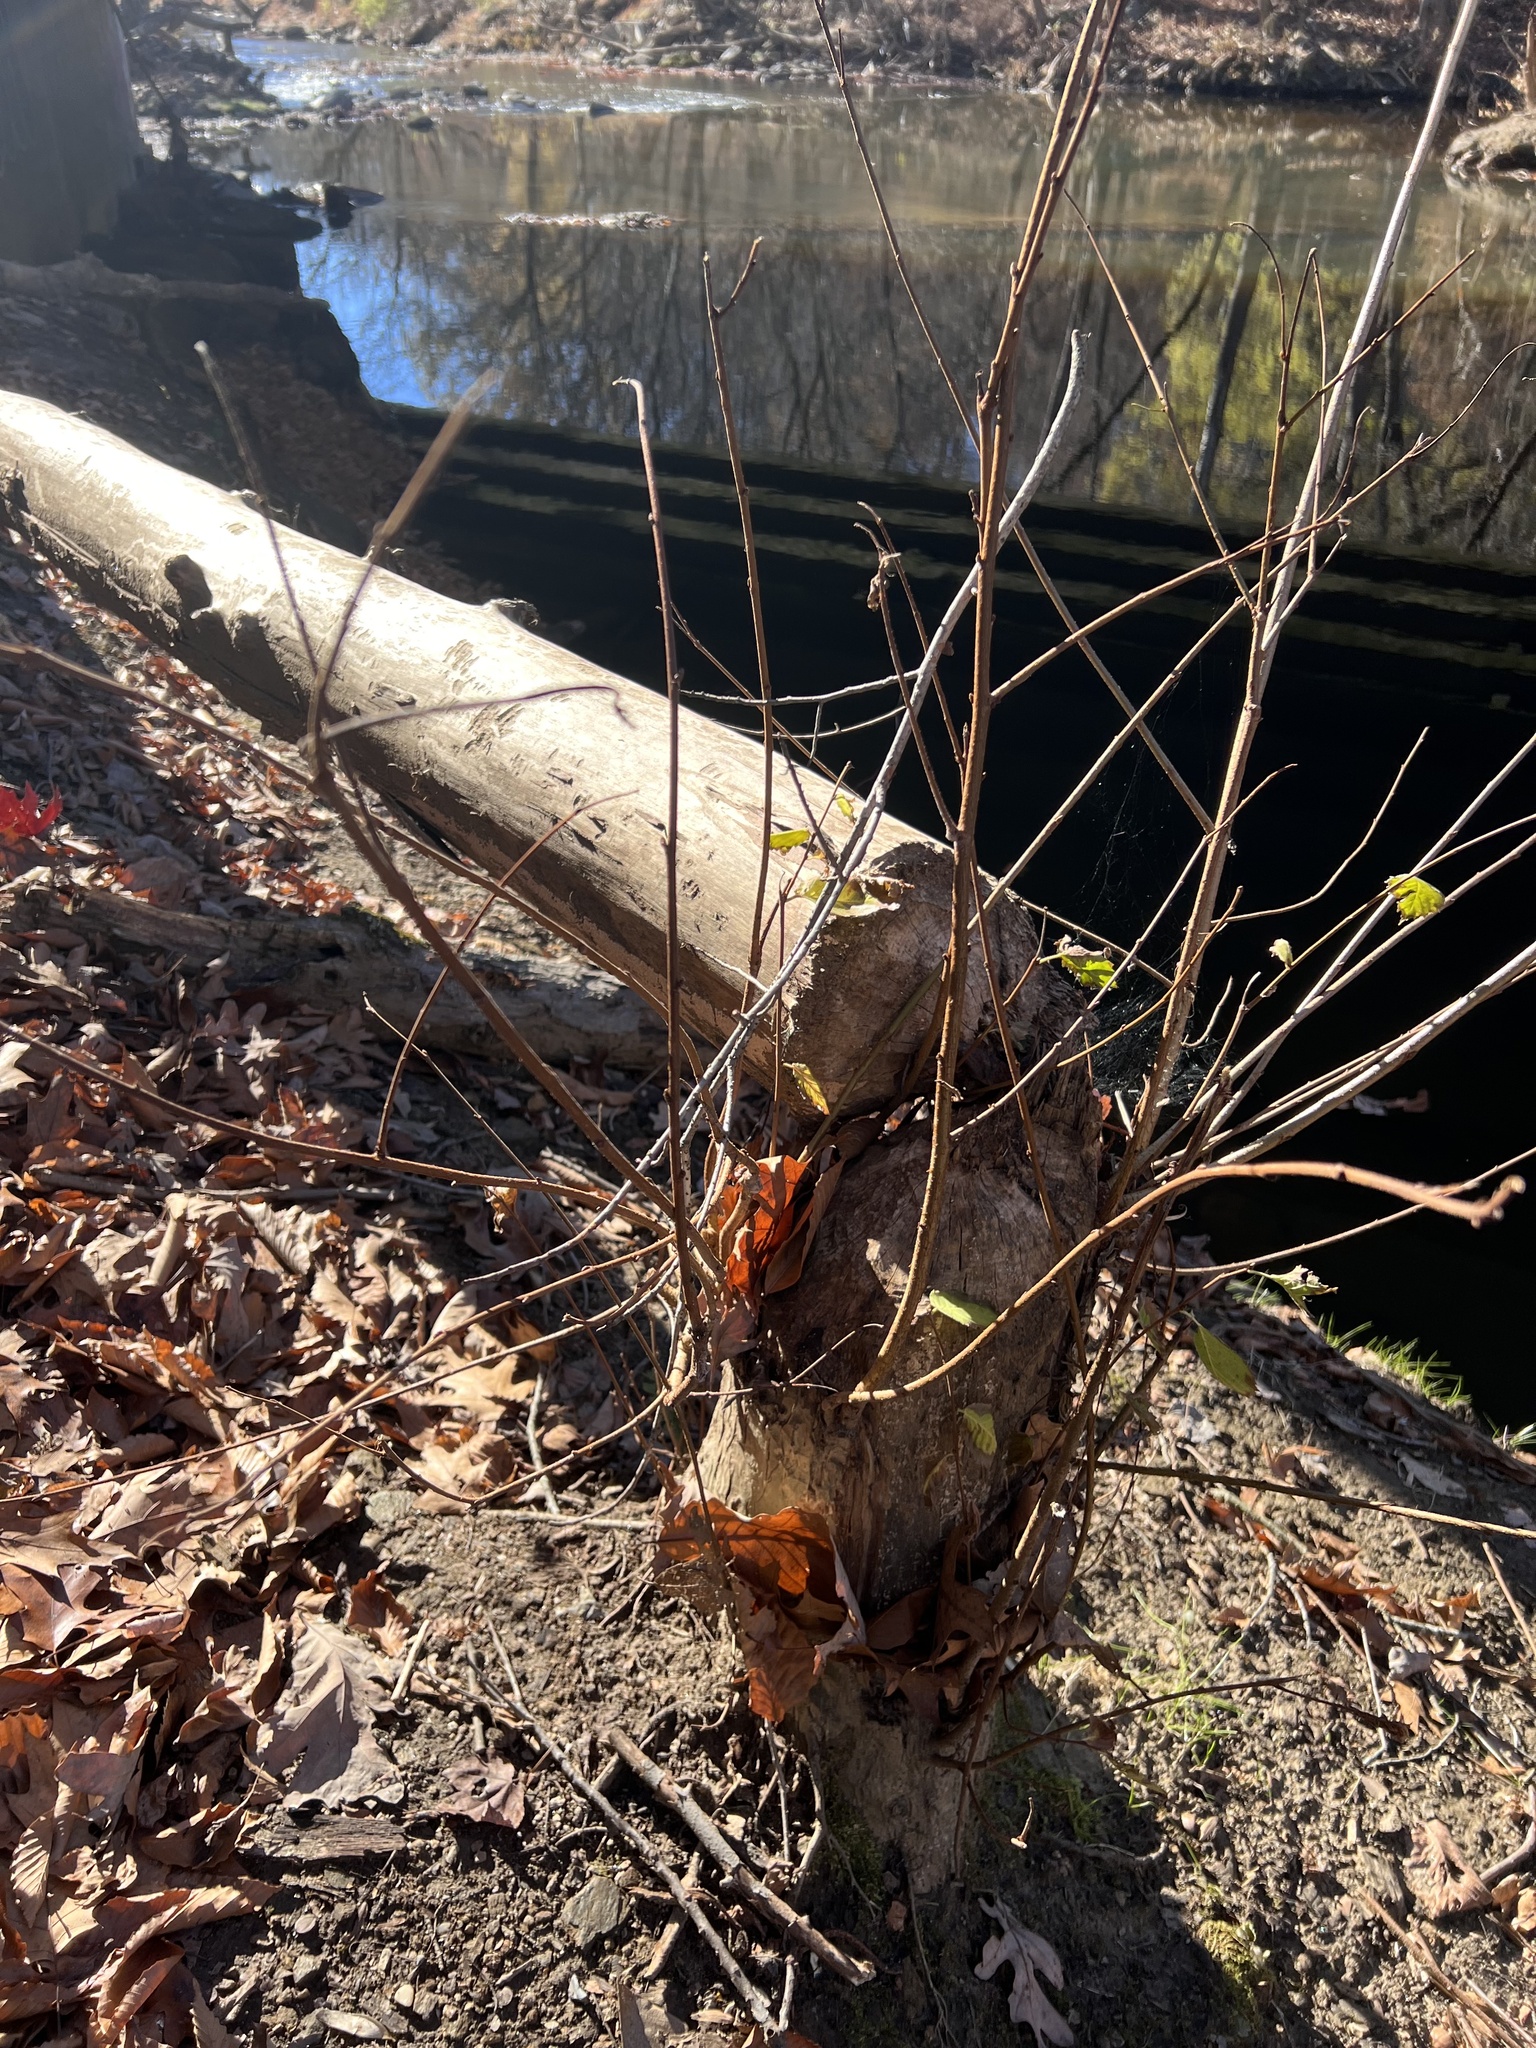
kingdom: Animalia
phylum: Chordata
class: Mammalia
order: Rodentia
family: Castoridae
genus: Castor
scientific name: Castor canadensis
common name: American beaver
